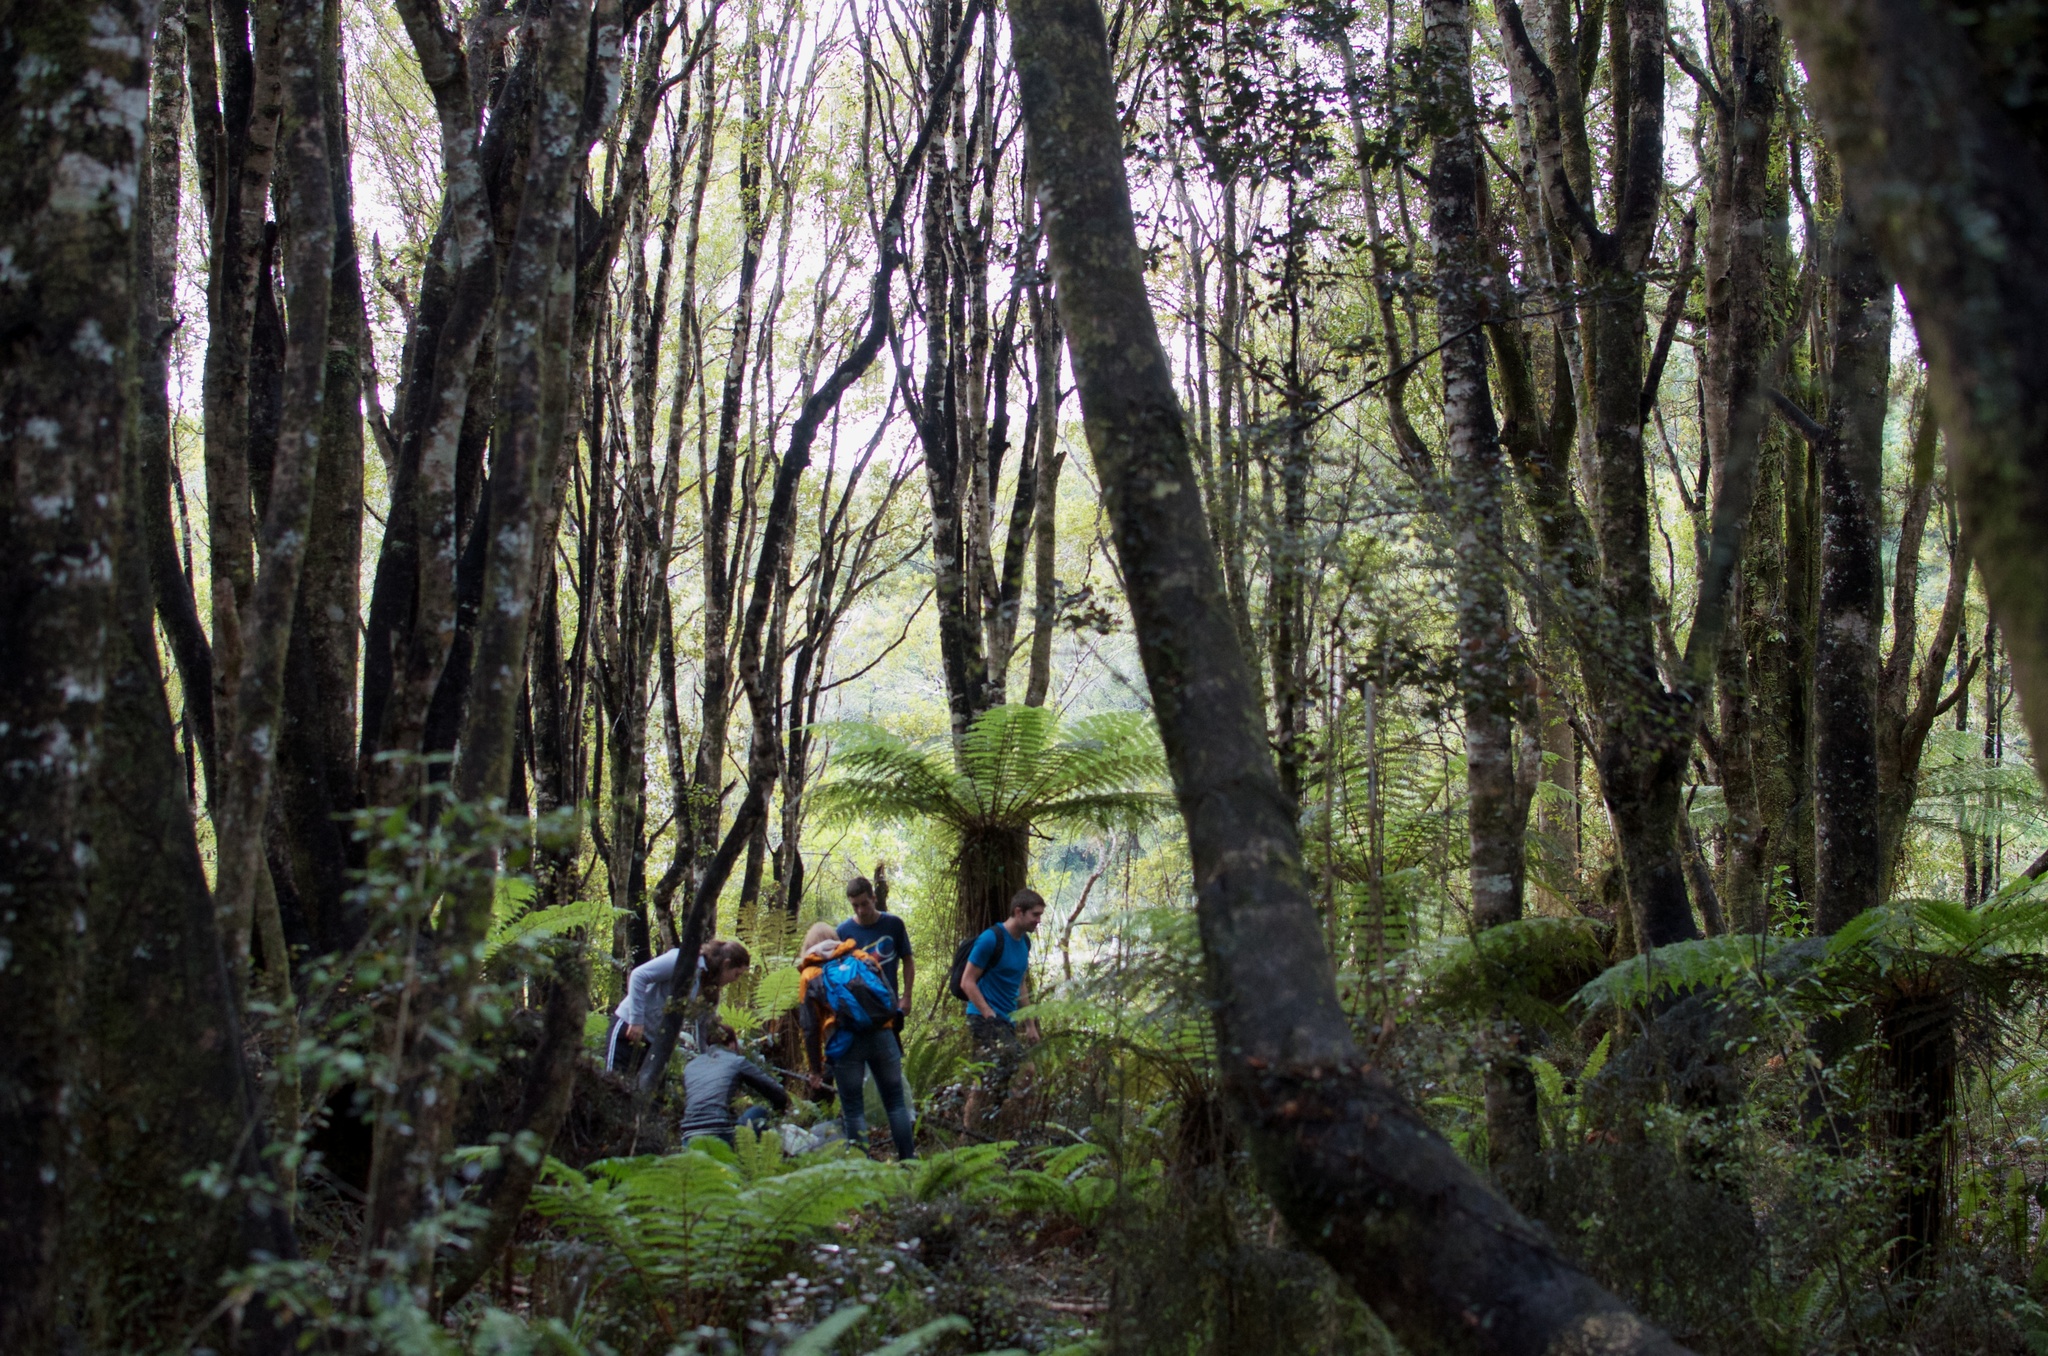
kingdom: Plantae
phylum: Tracheophyta
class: Magnoliopsida
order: Oxalidales
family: Cunoniaceae
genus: Pterophylla
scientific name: Pterophylla racemosa
